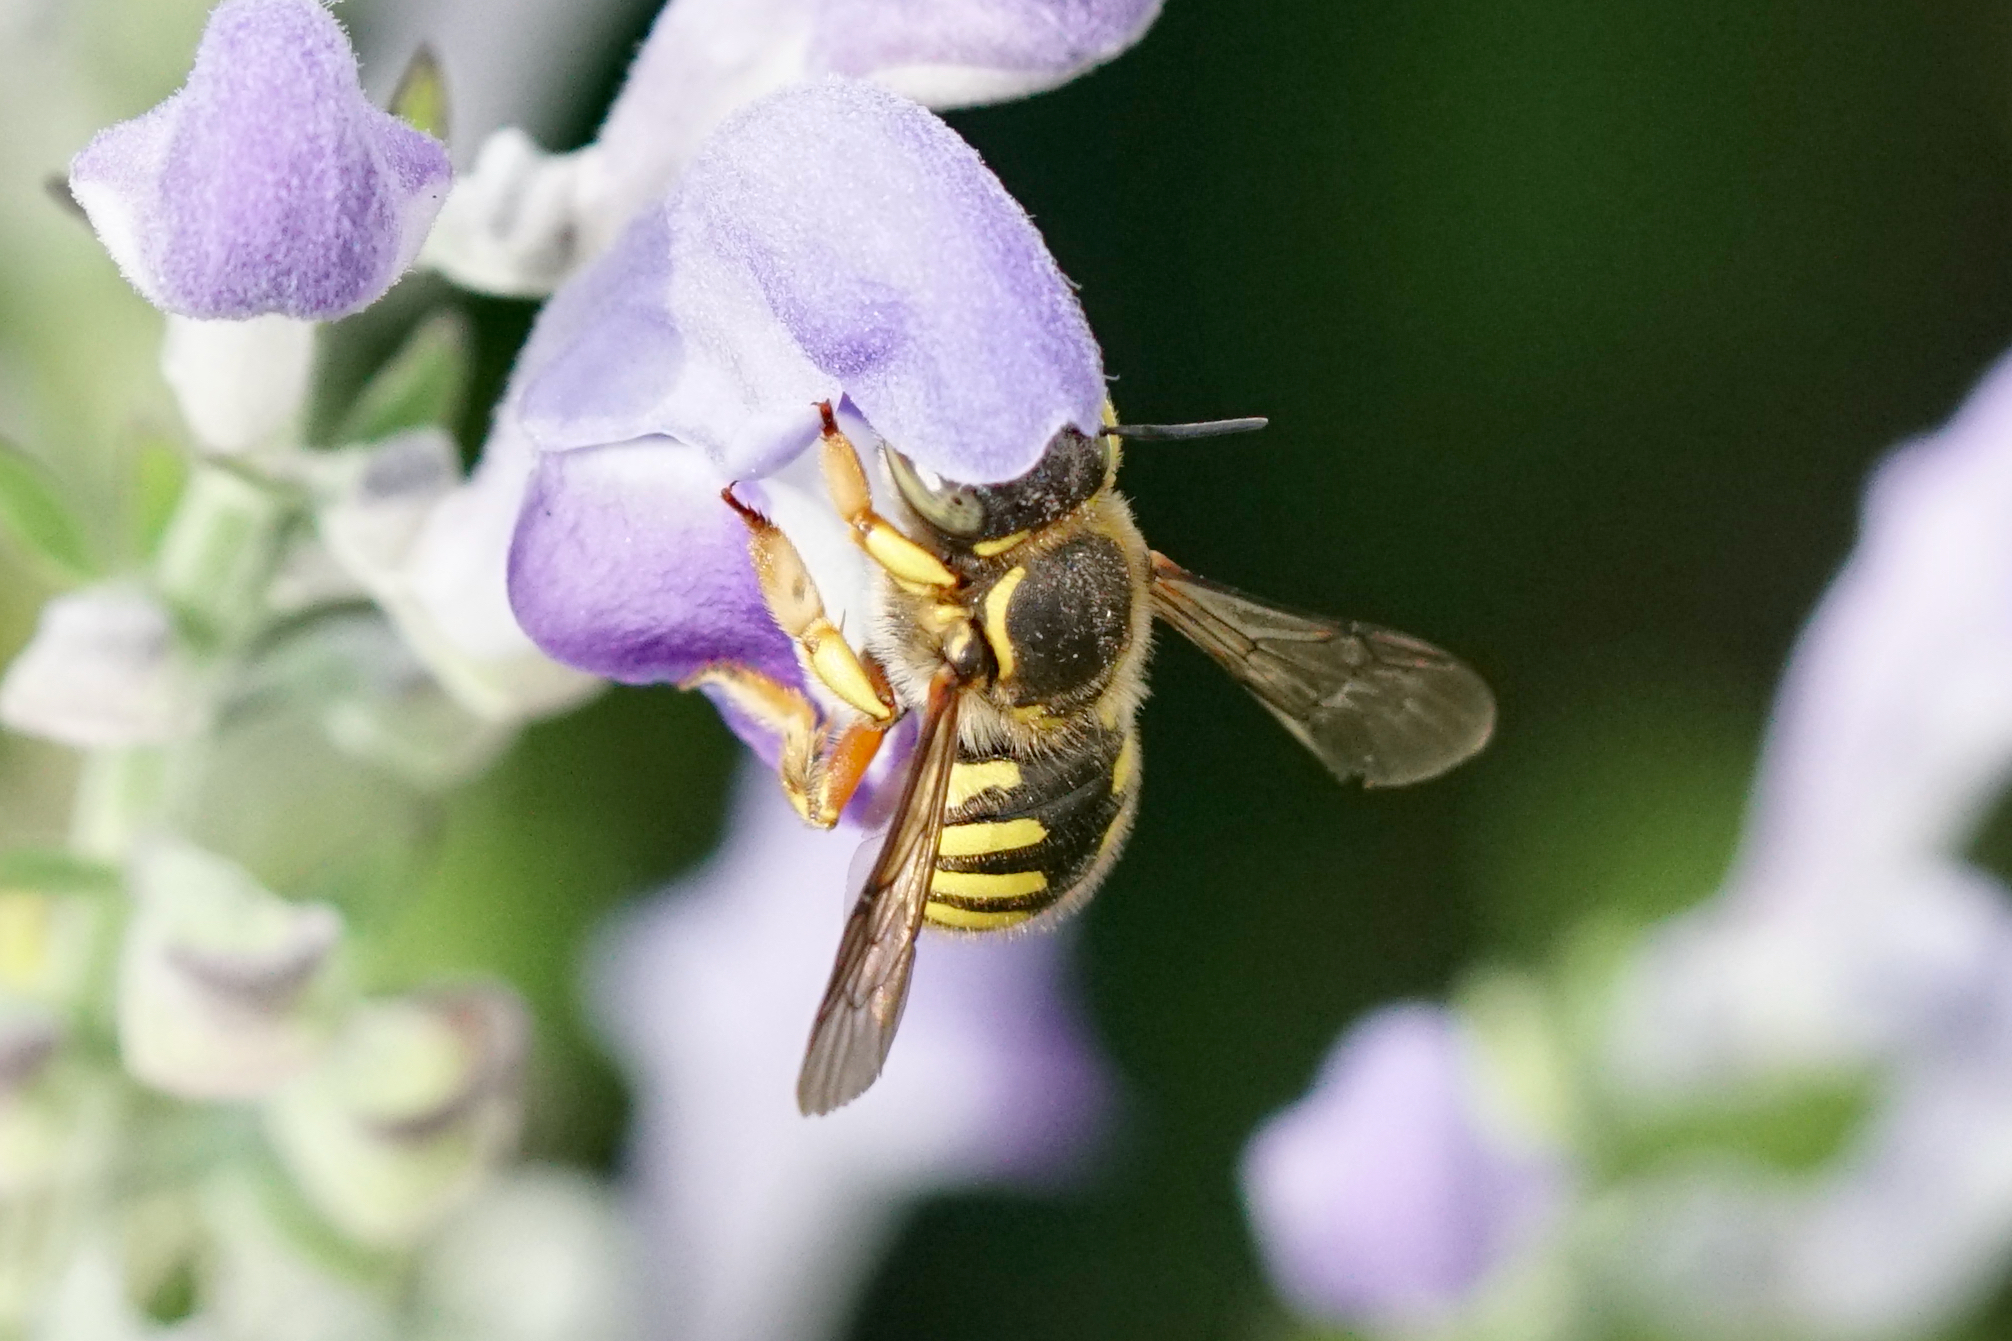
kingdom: Animalia
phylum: Arthropoda
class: Insecta
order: Hymenoptera
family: Megachilidae
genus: Anthidium
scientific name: Anthidium manicatum
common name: Wool carder bee
